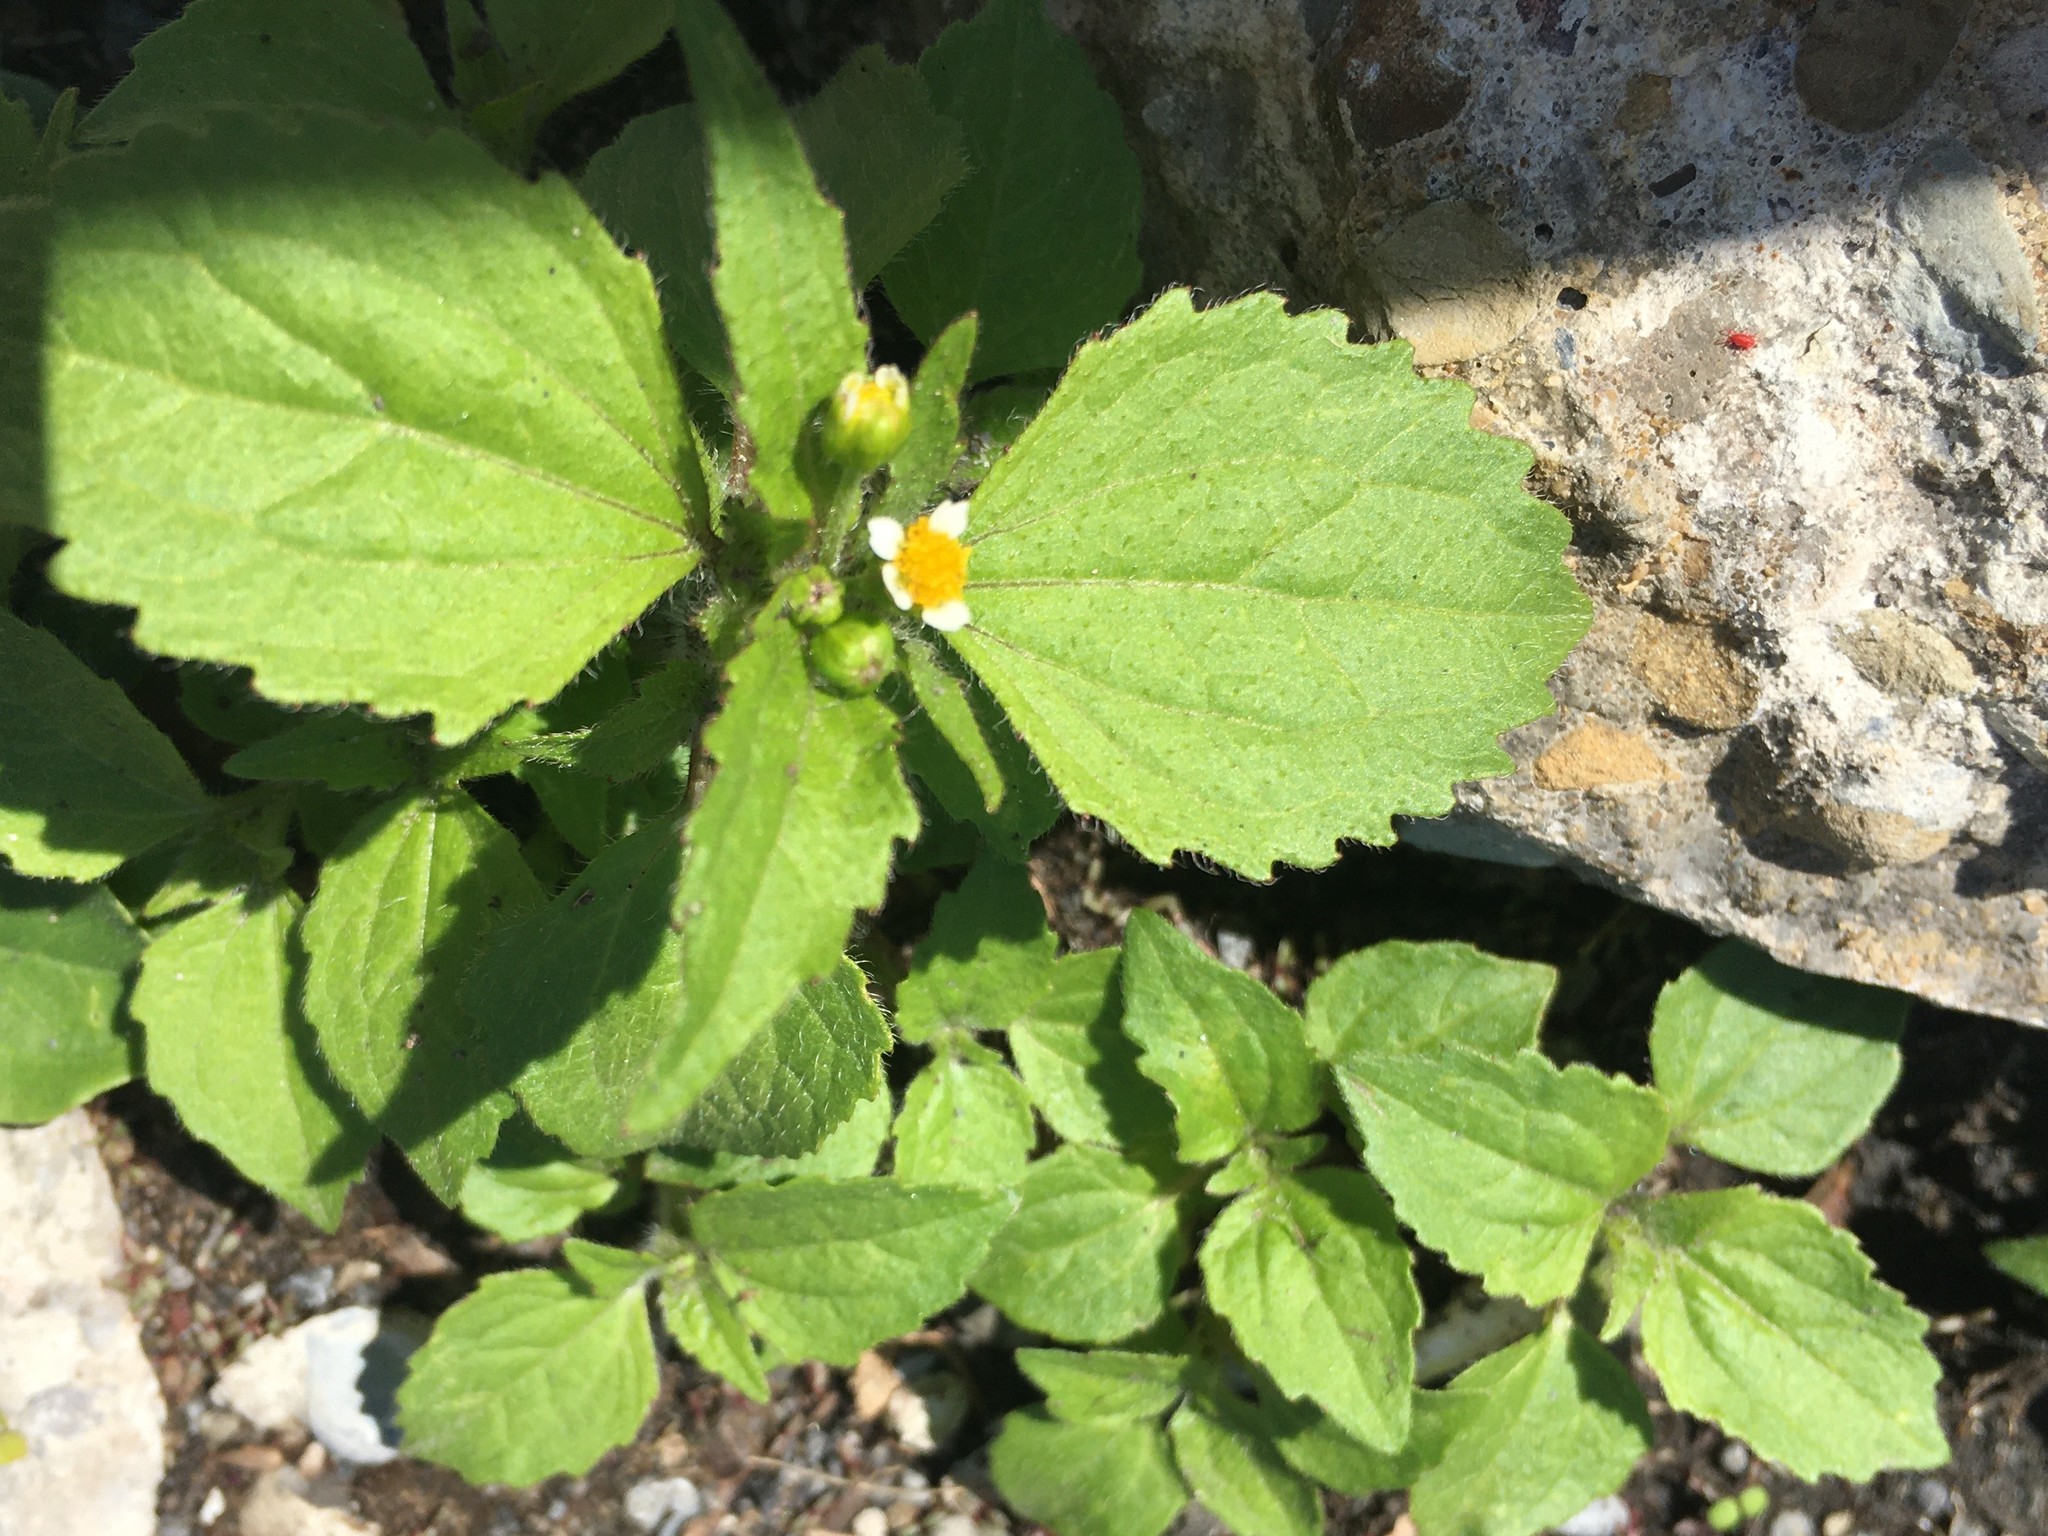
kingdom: Plantae
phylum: Tracheophyta
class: Magnoliopsida
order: Asterales
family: Asteraceae
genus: Galinsoga
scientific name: Galinsoga quadriradiata
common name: Shaggy soldier
